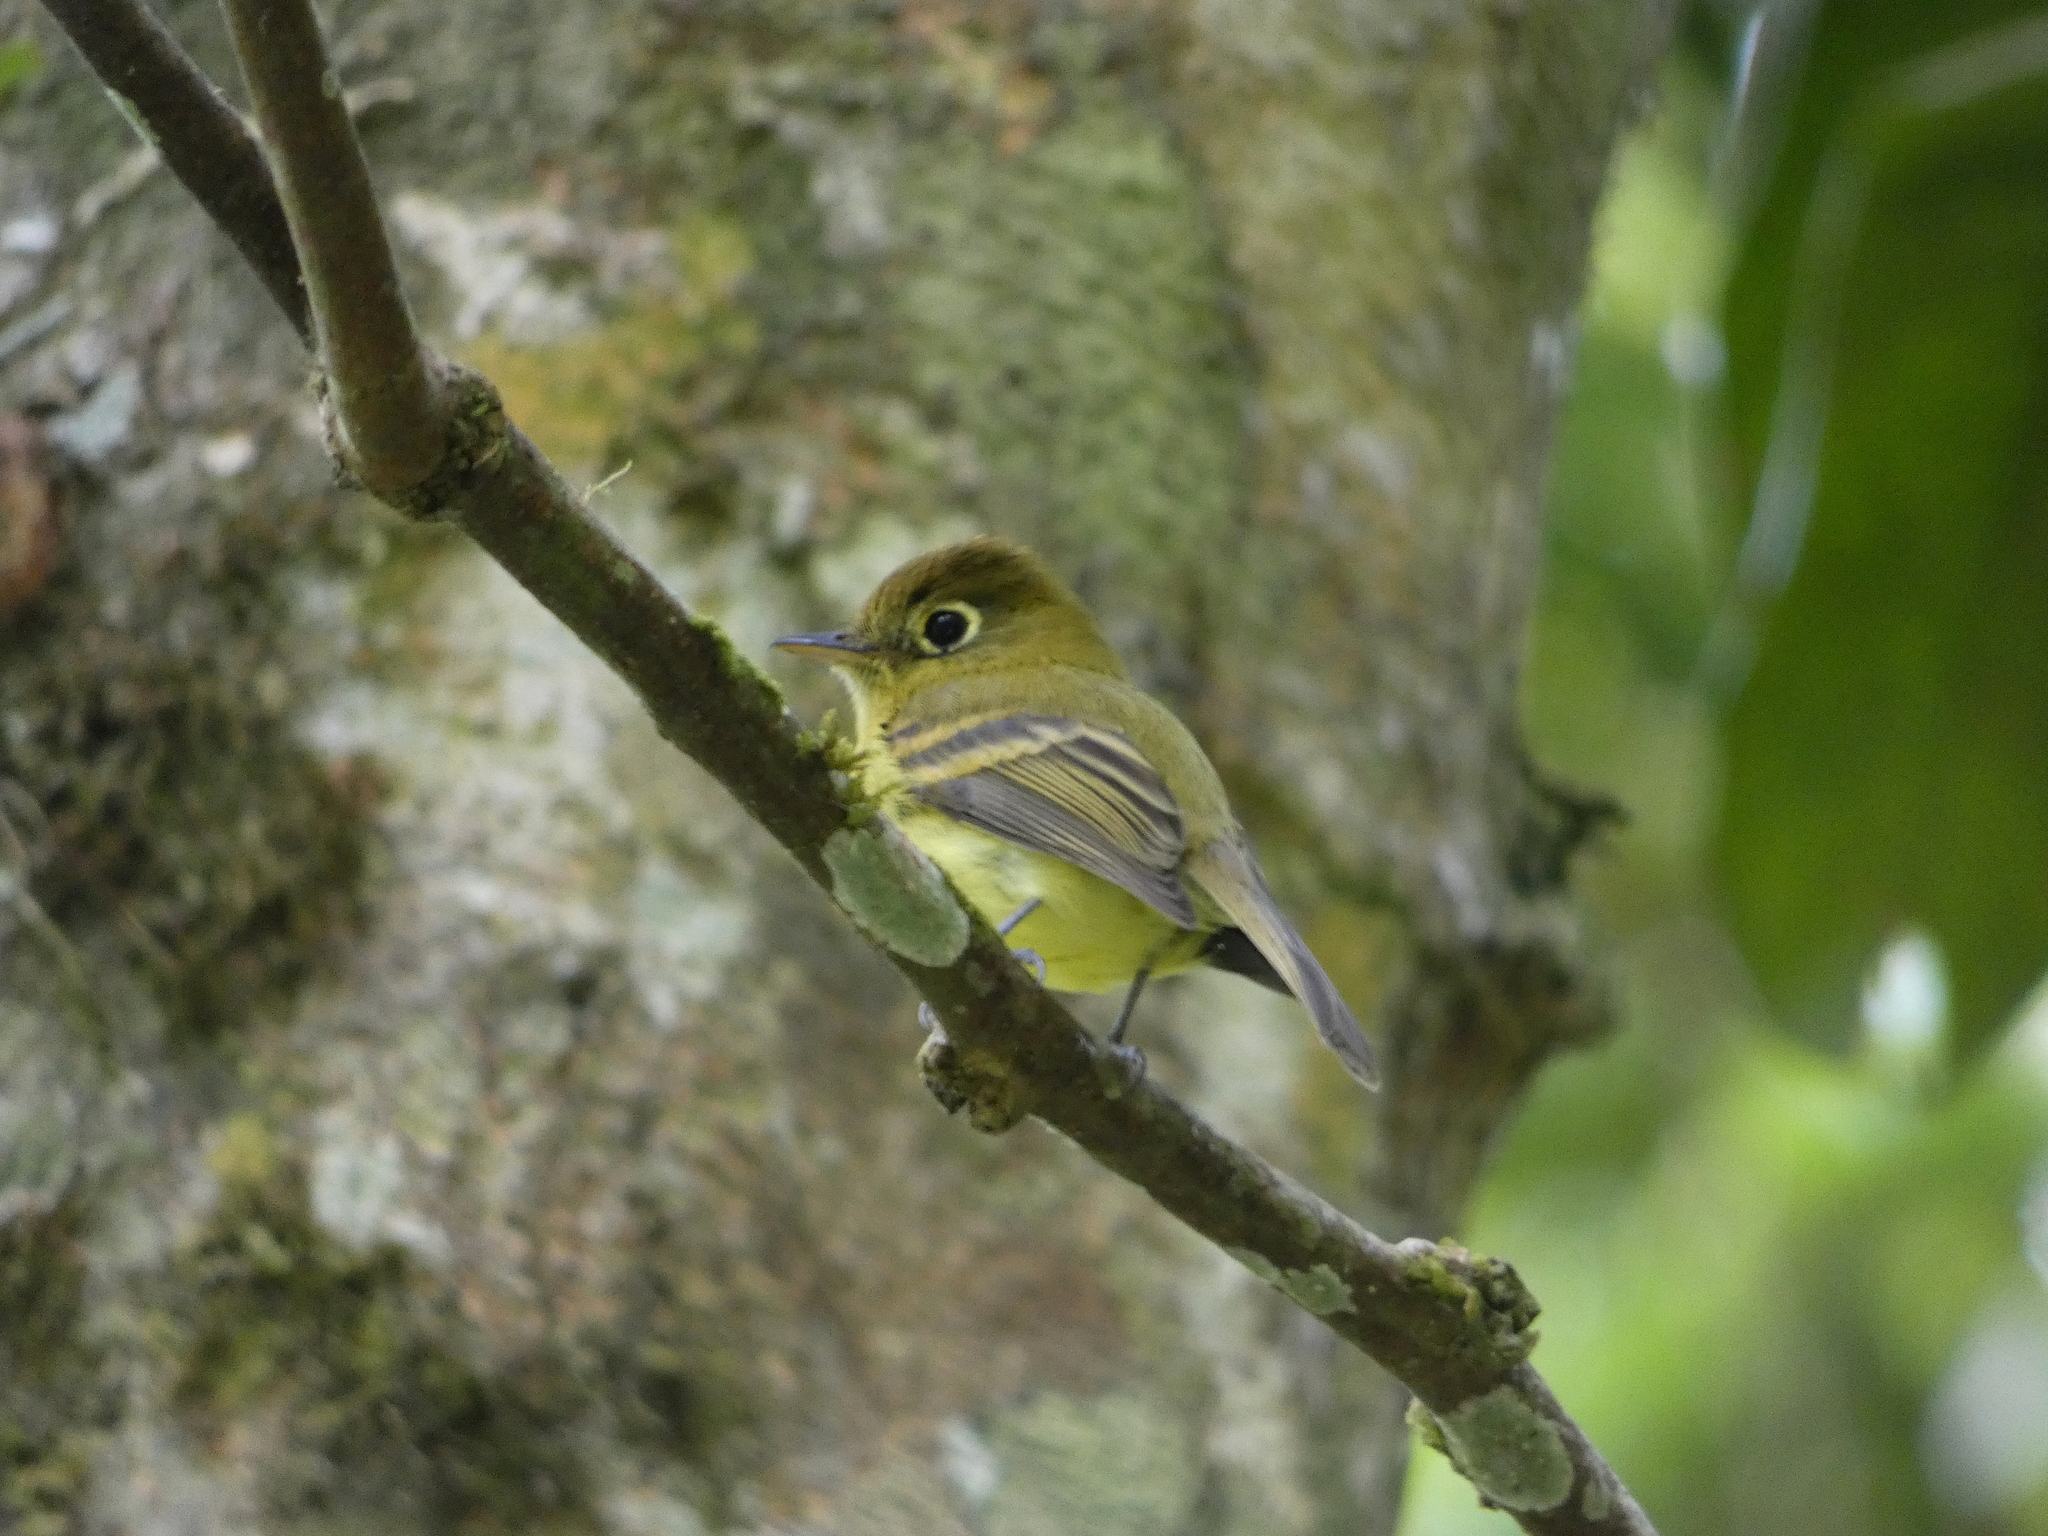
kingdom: Animalia
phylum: Chordata
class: Aves
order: Passeriformes
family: Tyrannidae
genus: Empidonax
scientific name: Empidonax flavescens
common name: Yellowish flycatcher
